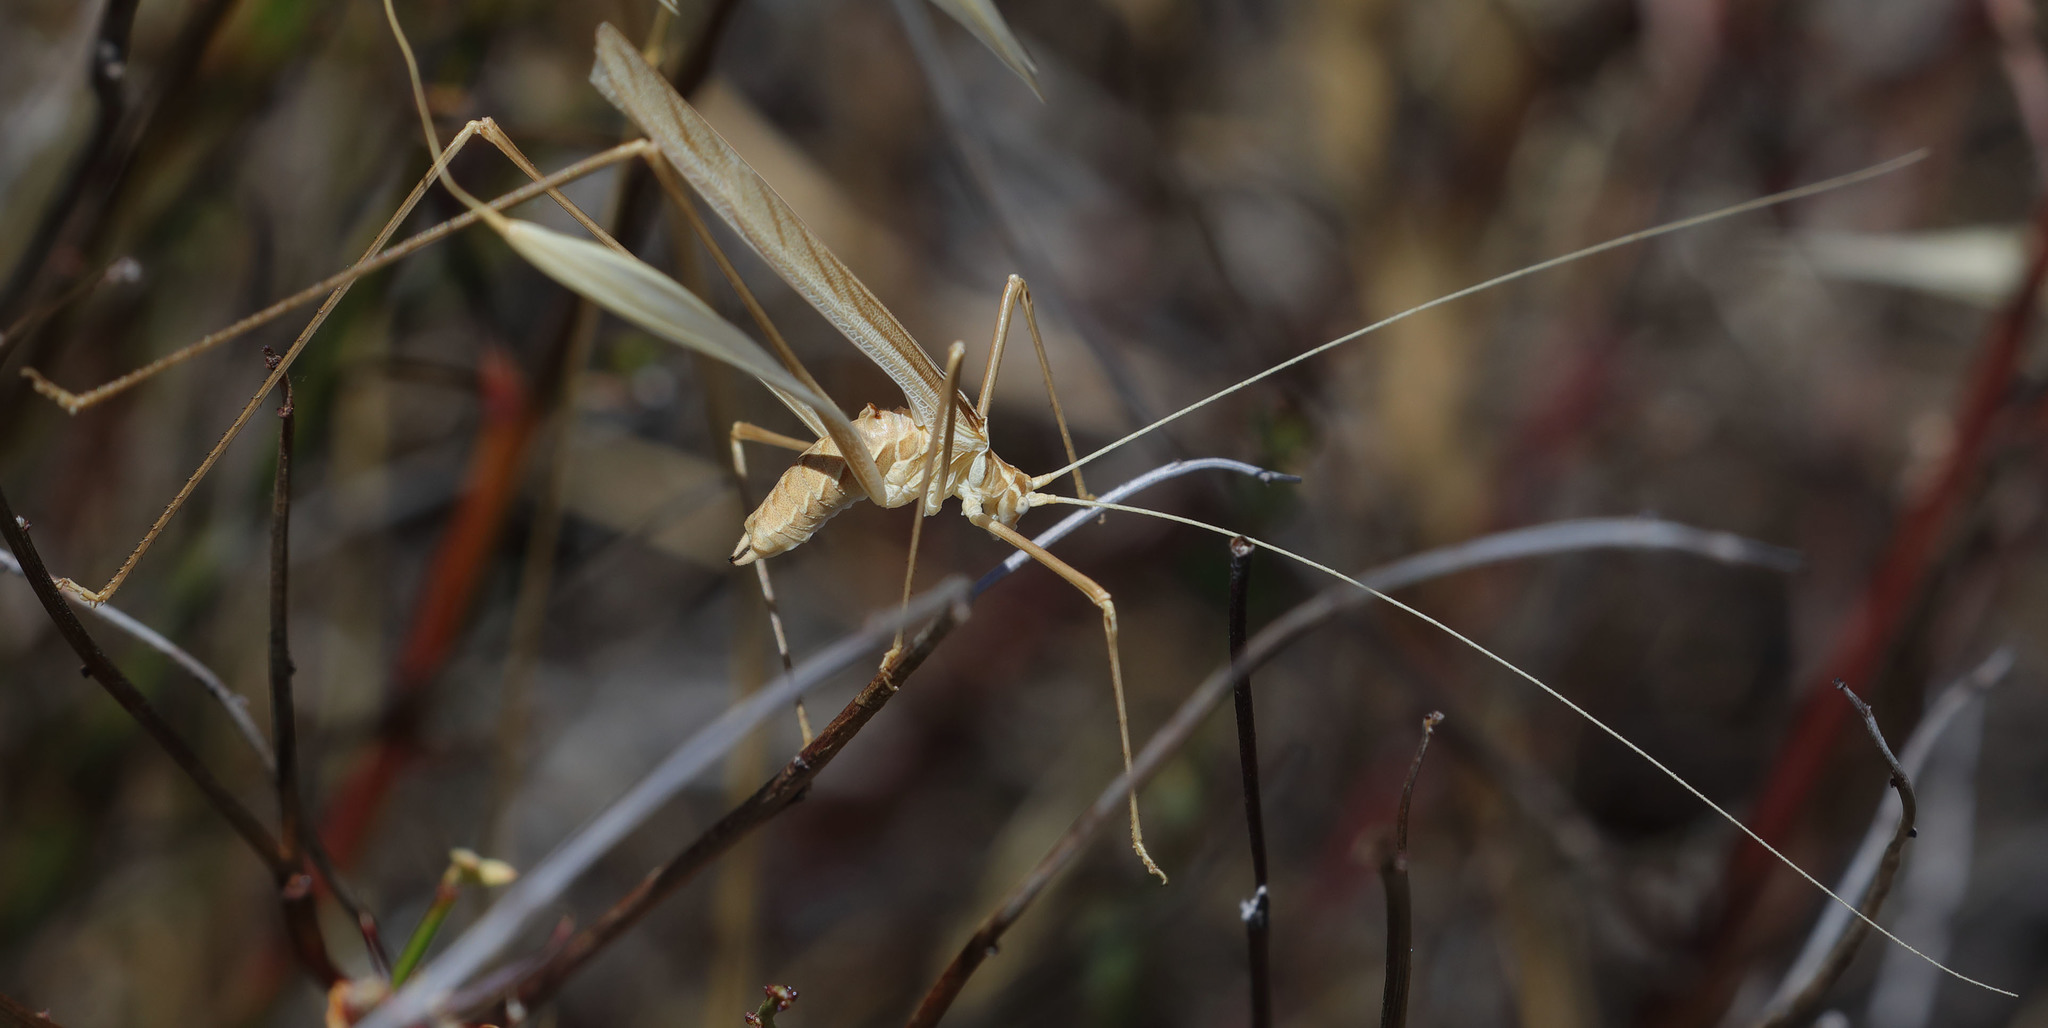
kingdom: Animalia
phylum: Arthropoda
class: Insecta
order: Orthoptera
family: Tettigoniidae
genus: Arethaea
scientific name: Arethaea brevicauda
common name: Short-tail thread-legged katydid
